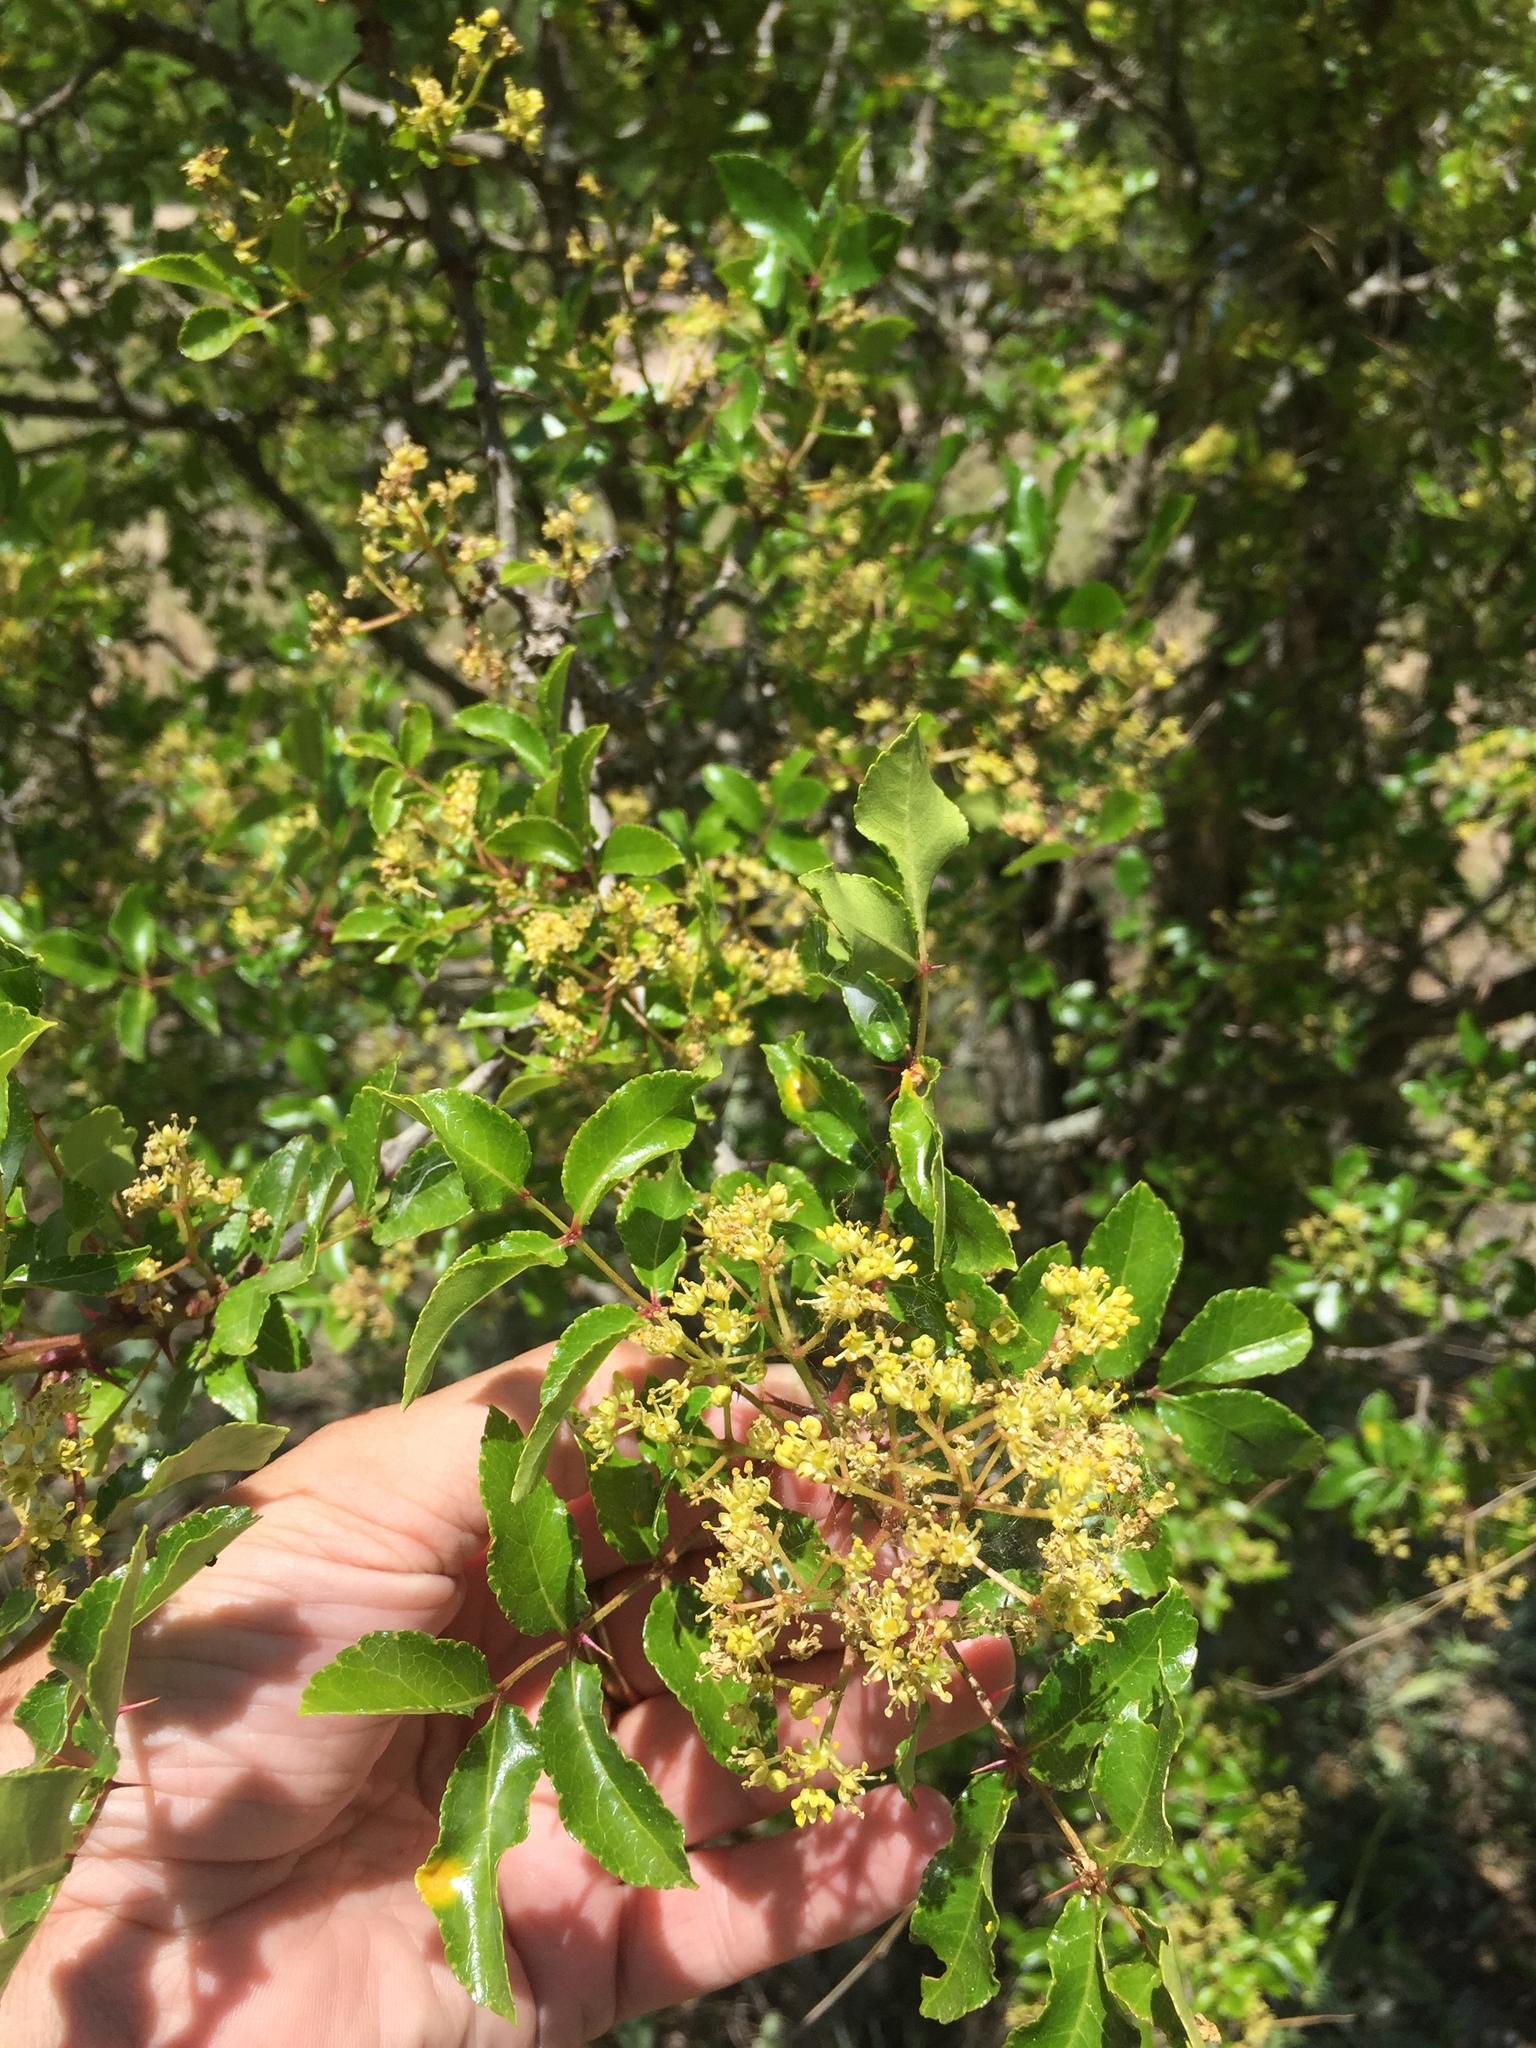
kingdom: Plantae
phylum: Tracheophyta
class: Magnoliopsida
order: Sapindales
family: Rutaceae
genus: Zanthoxylum
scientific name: Zanthoxylum clava-herculis
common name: Hercules'-club
